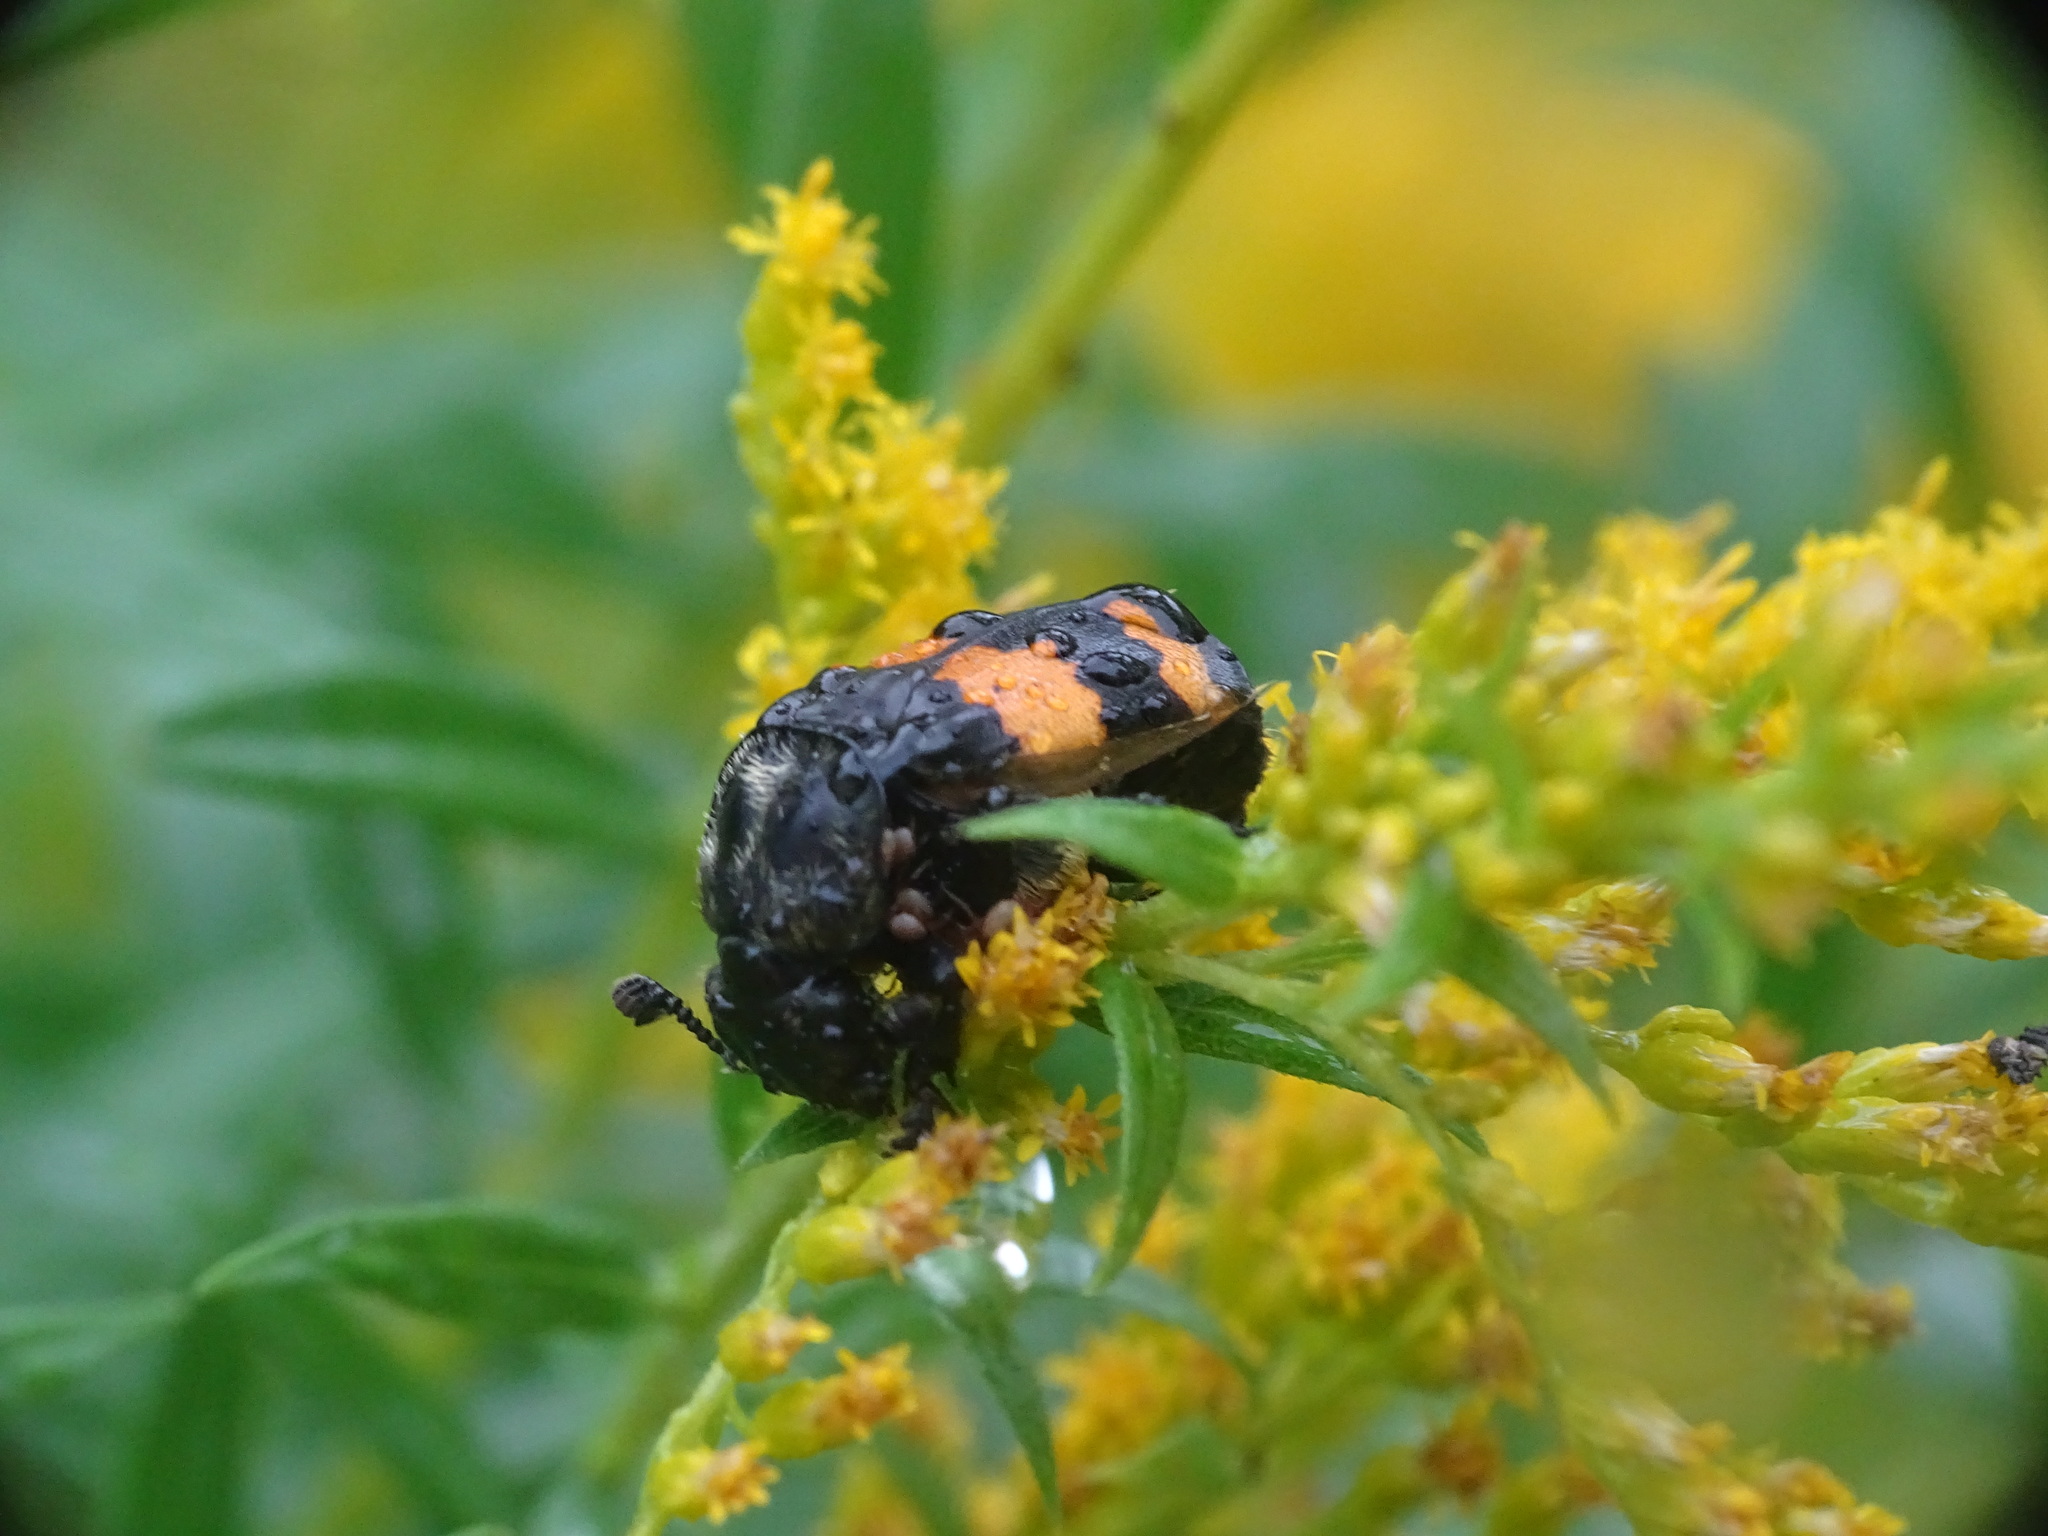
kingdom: Animalia
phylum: Arthropoda
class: Insecta
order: Coleoptera
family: Staphylinidae
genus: Nicrophorus
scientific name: Nicrophorus tomentosus
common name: Tomentose burying beetle
